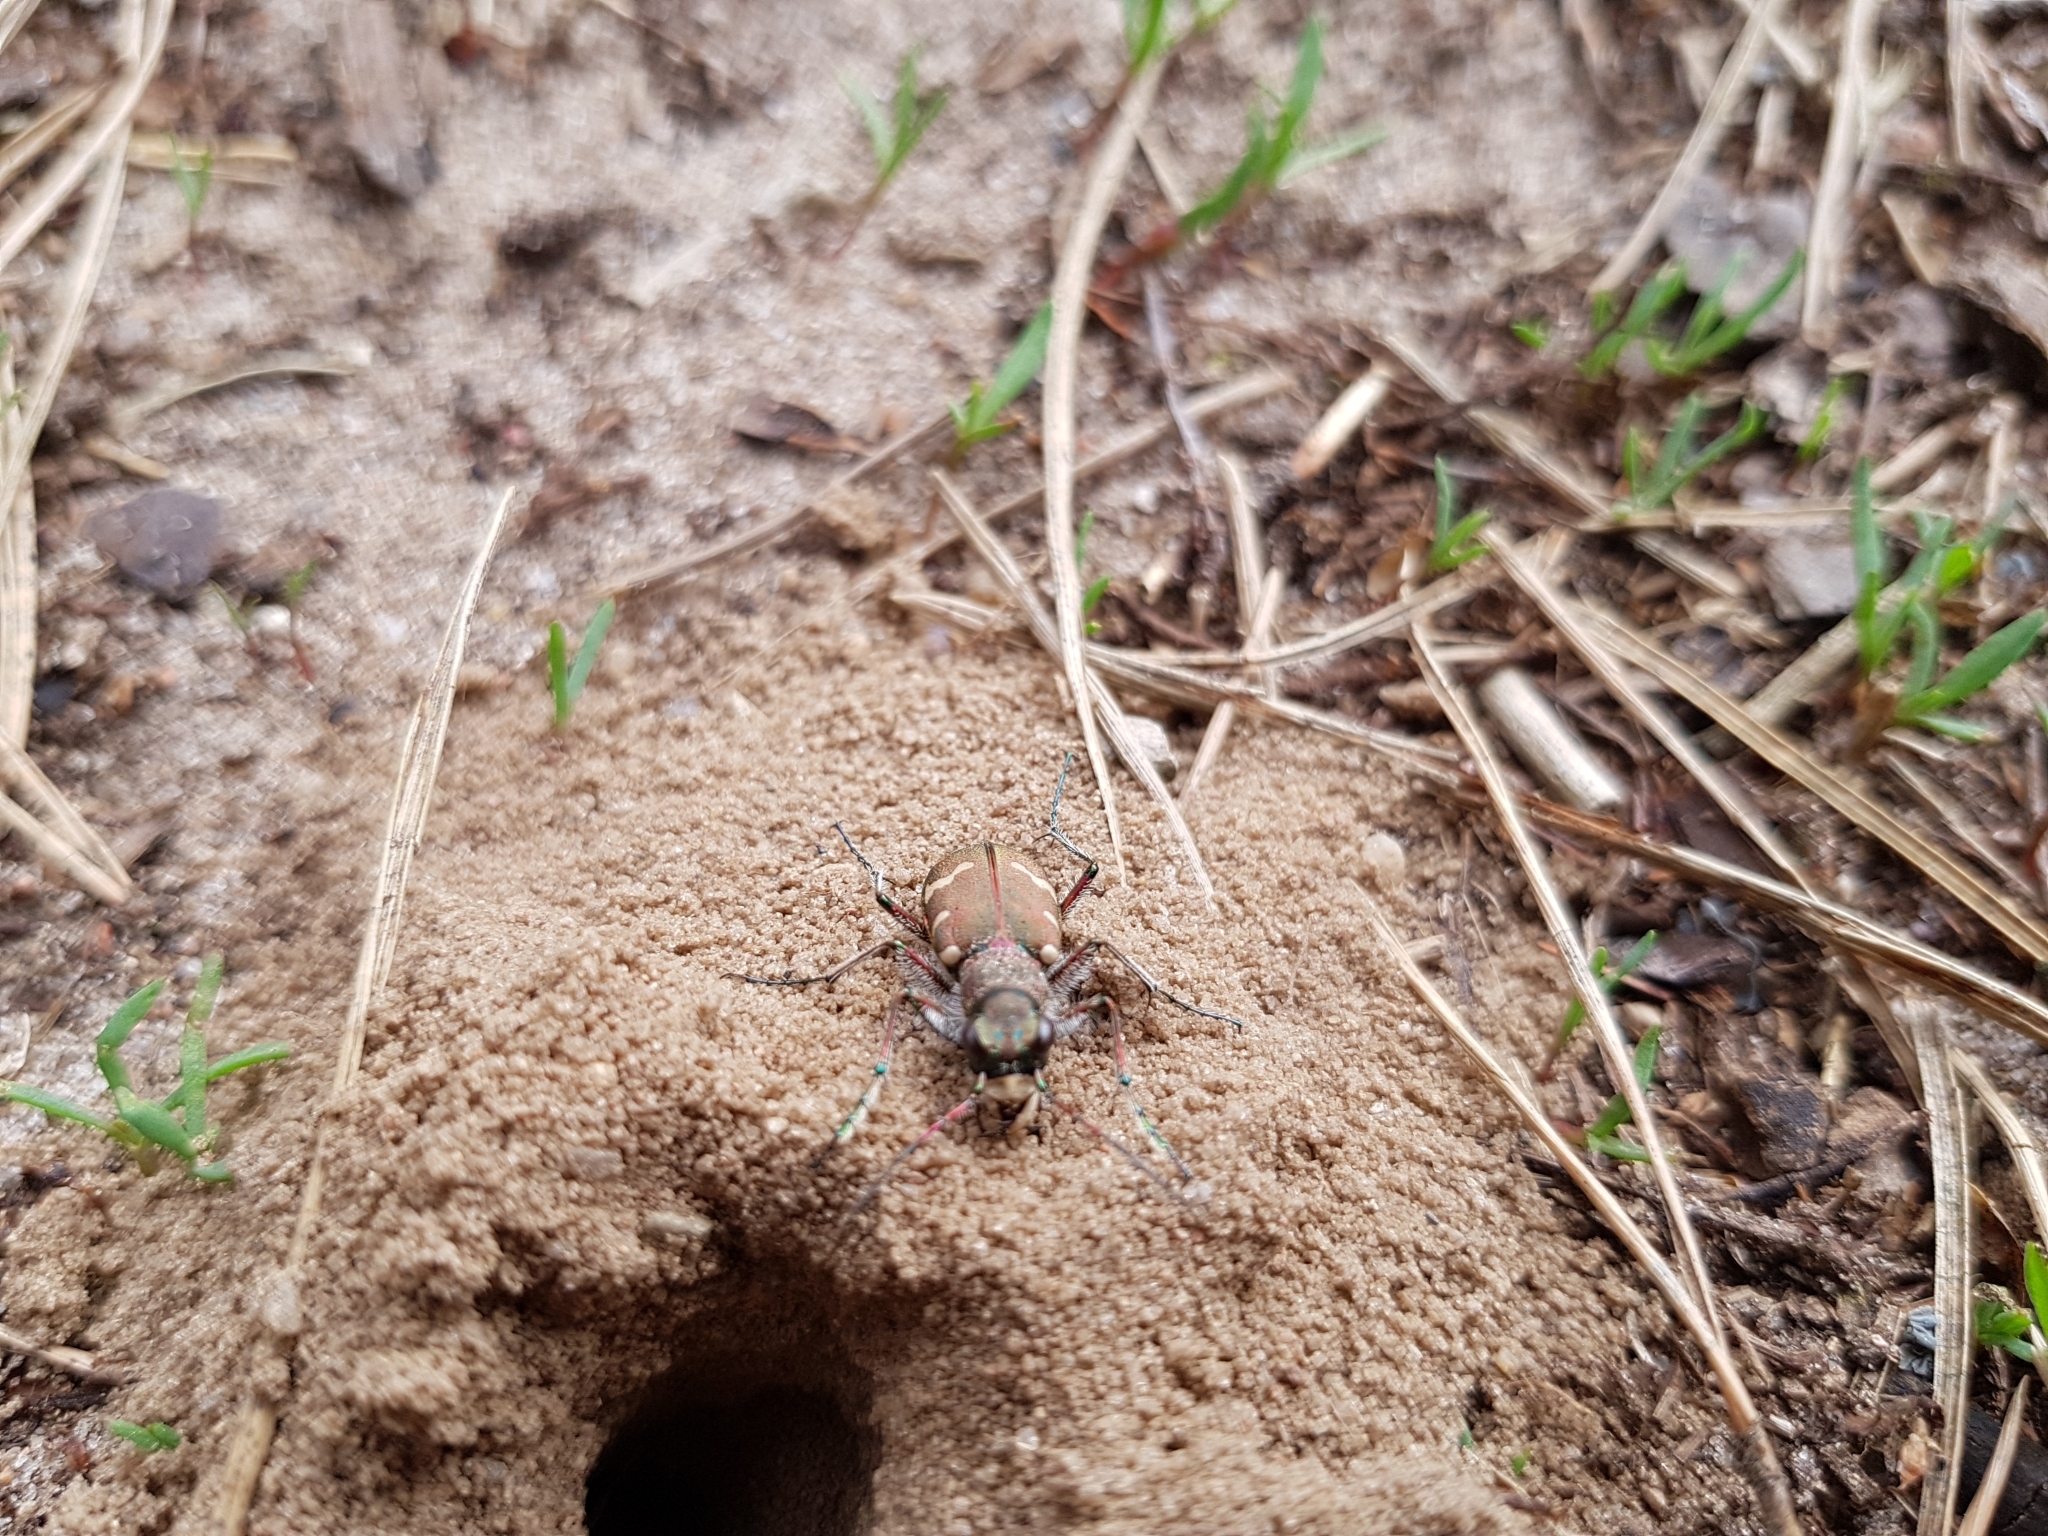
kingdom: Animalia
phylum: Arthropoda
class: Insecta
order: Coleoptera
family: Carabidae
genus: Cicindela
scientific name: Cicindela hybrida
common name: Northern dune tiger beetle
